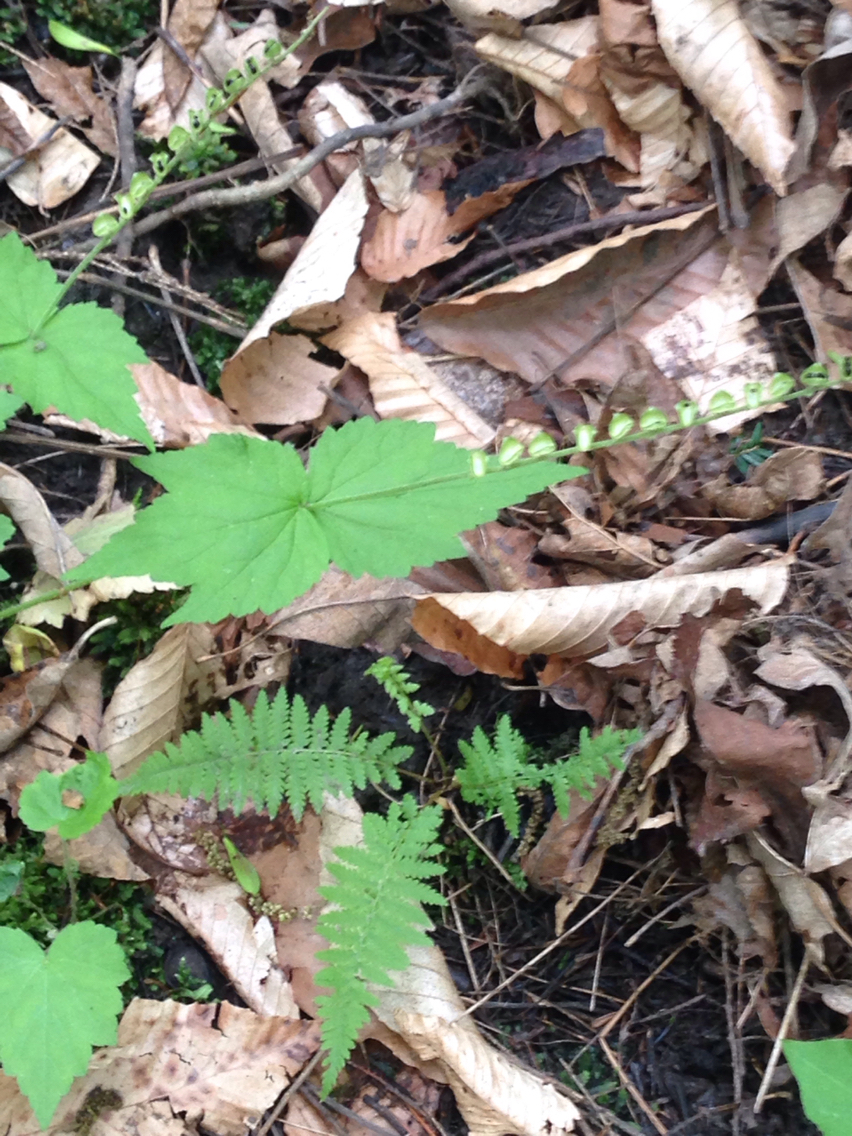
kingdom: Plantae
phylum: Tracheophyta
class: Polypodiopsida
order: Polypodiales
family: Thelypteridaceae
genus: Amauropelta
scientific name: Amauropelta noveboracensis
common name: New york fern
